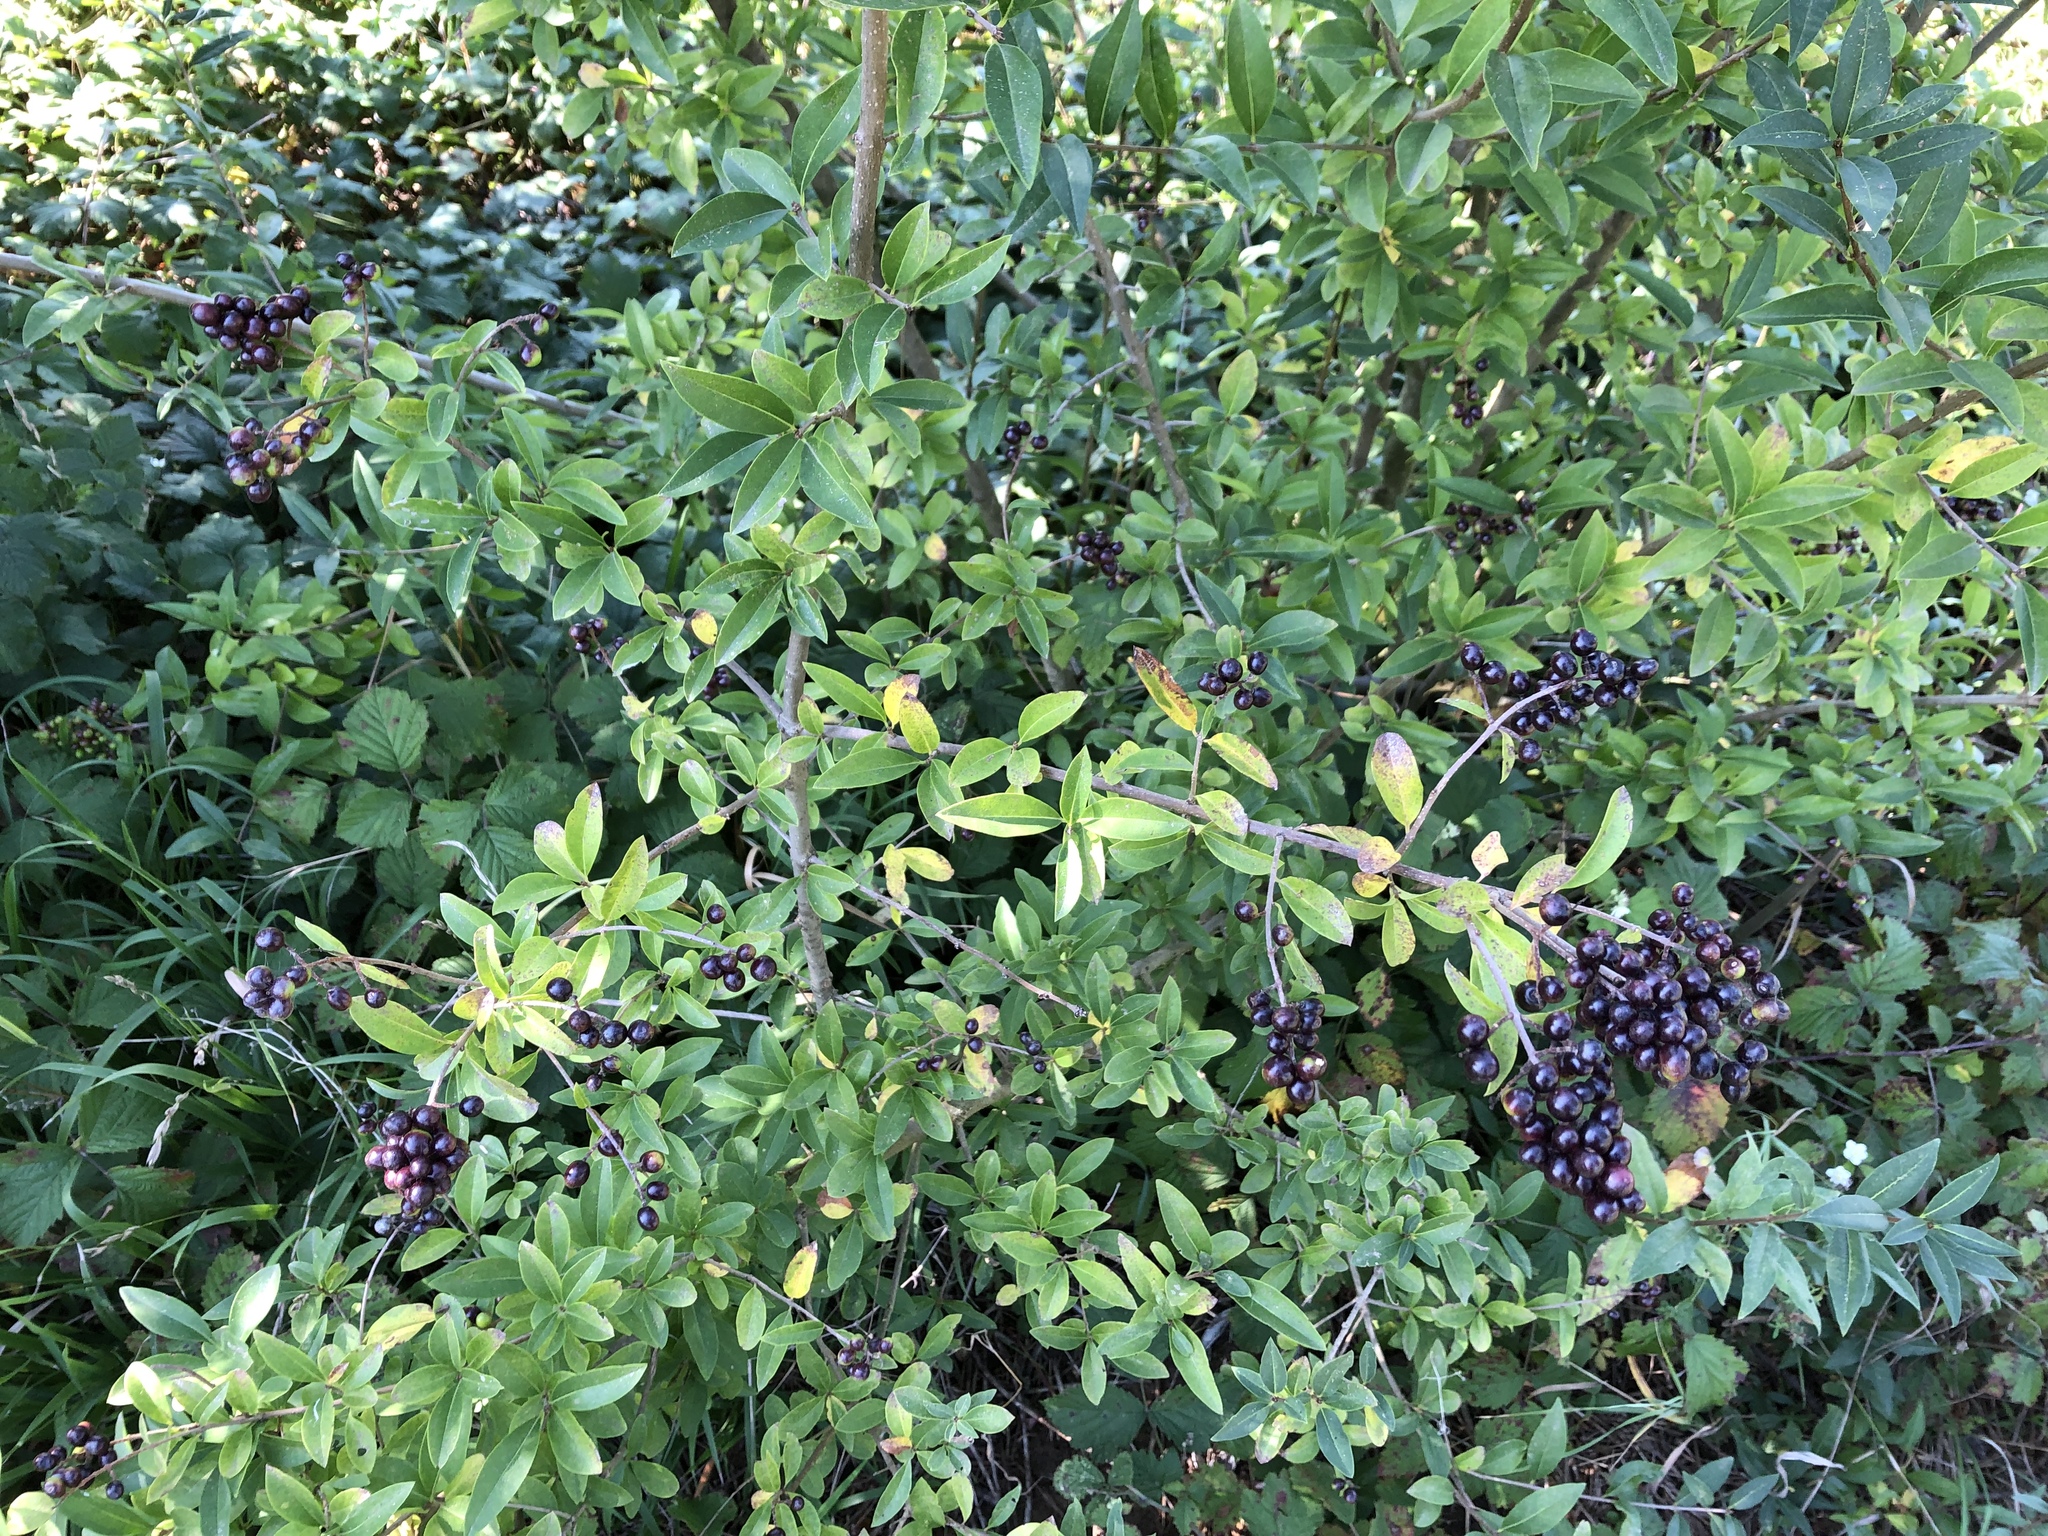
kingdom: Plantae
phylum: Tracheophyta
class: Magnoliopsida
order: Lamiales
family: Oleaceae
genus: Ligustrum
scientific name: Ligustrum vulgare
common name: Wild privet
